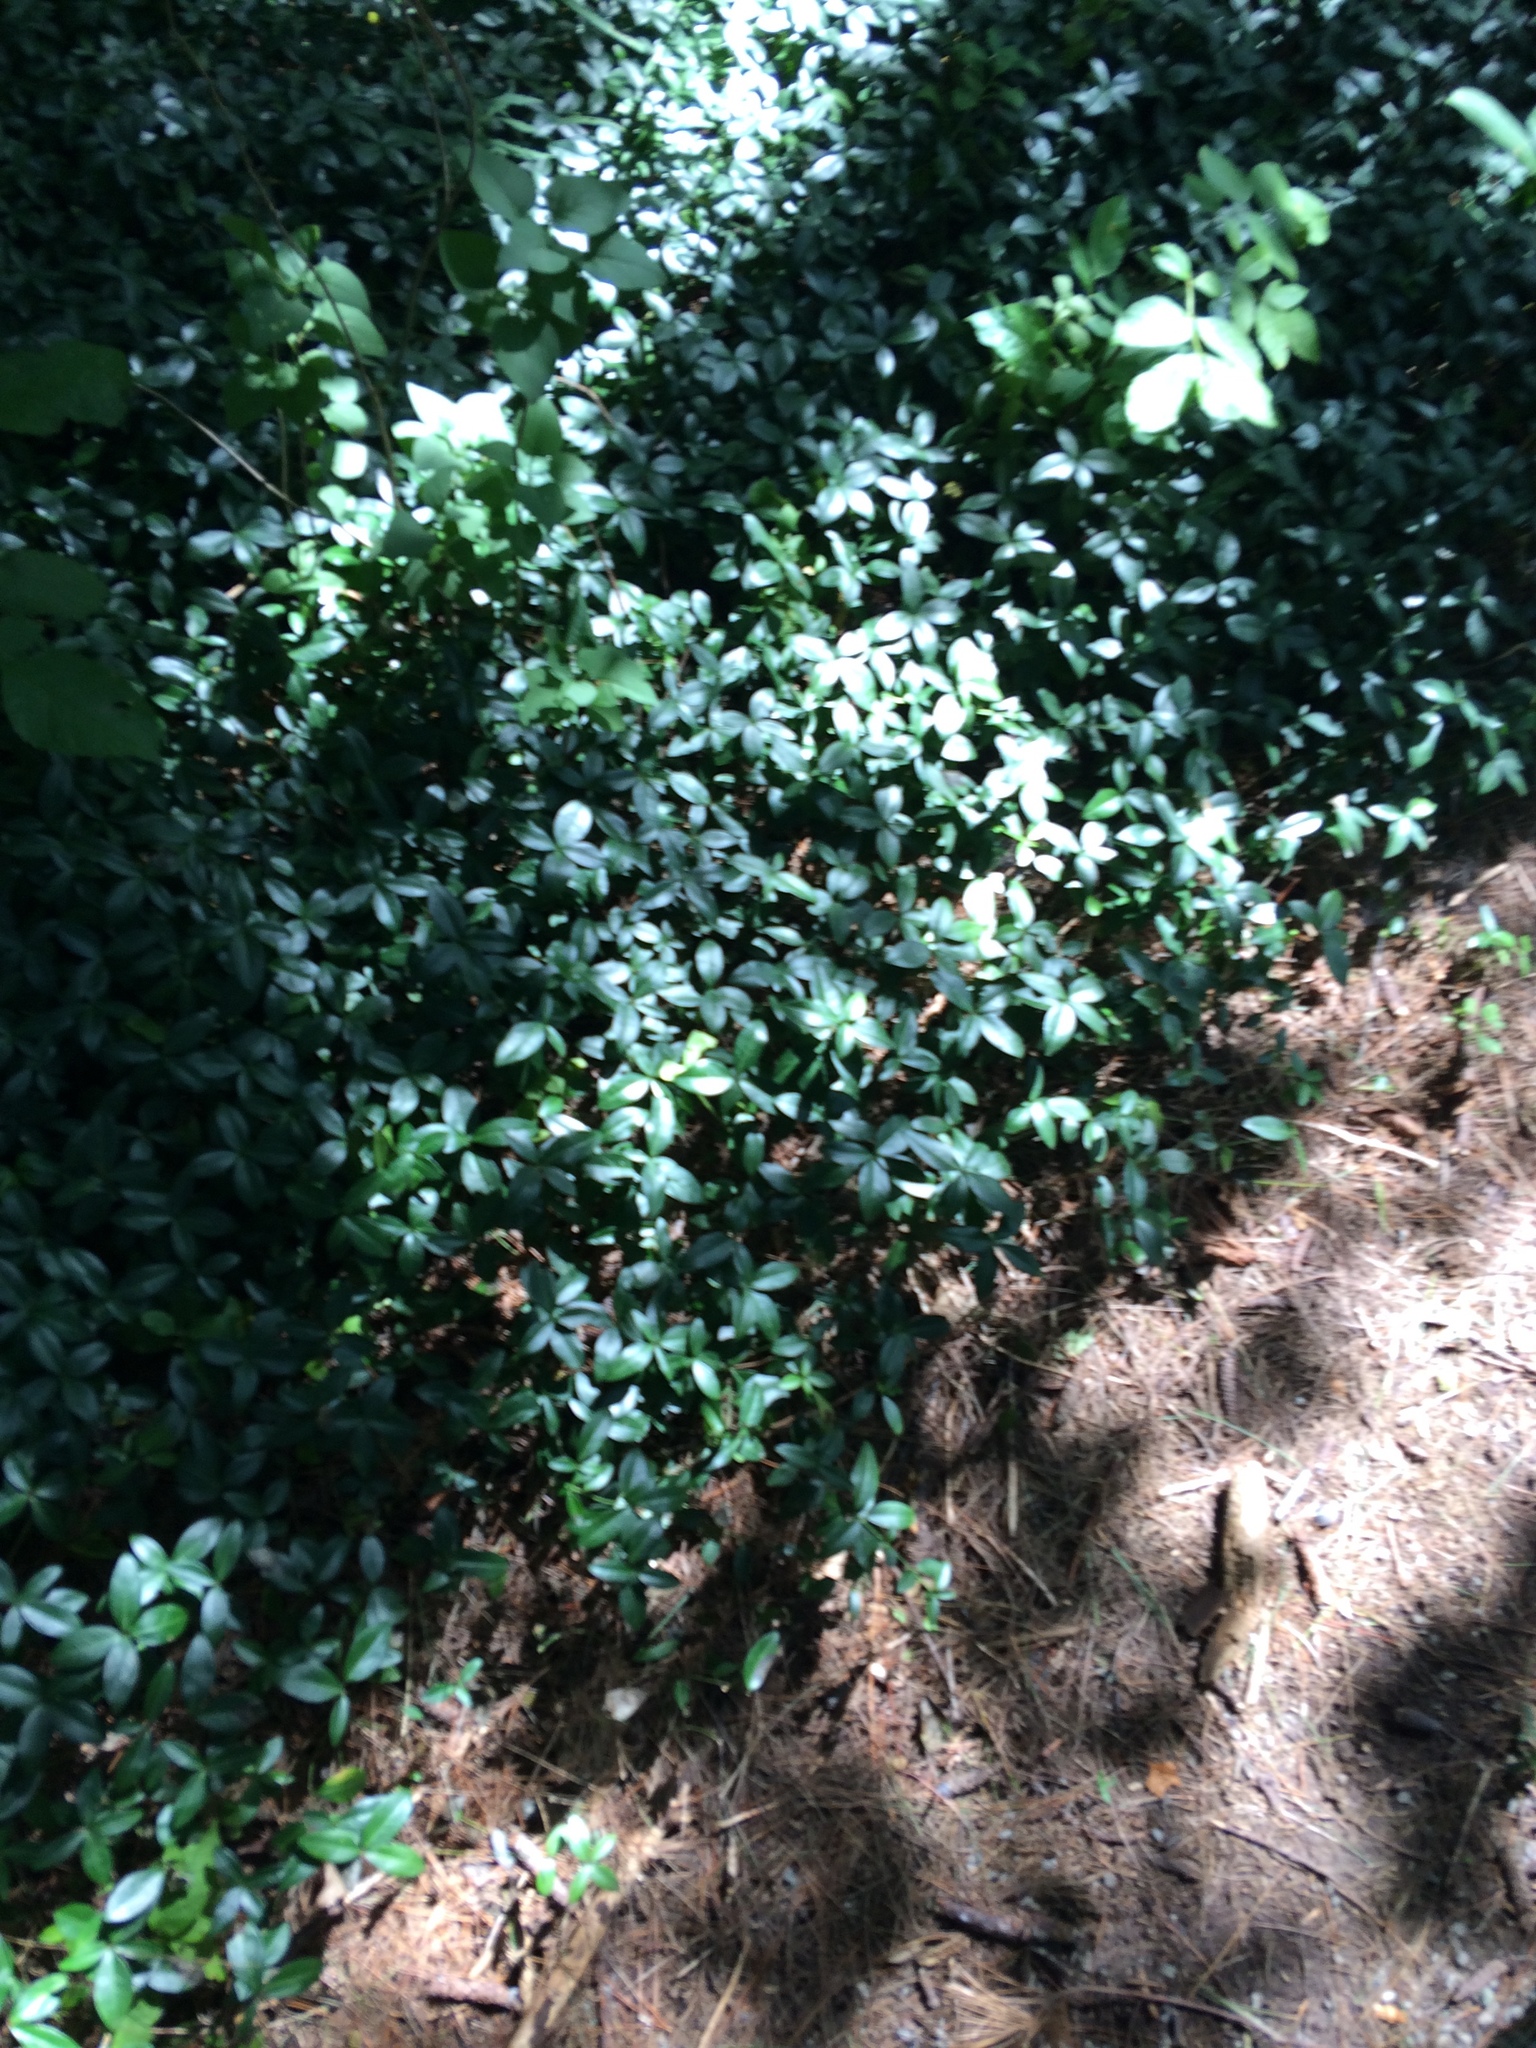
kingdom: Plantae
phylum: Tracheophyta
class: Magnoliopsida
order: Gentianales
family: Apocynaceae
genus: Vinca
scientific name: Vinca minor
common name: Lesser periwinkle
